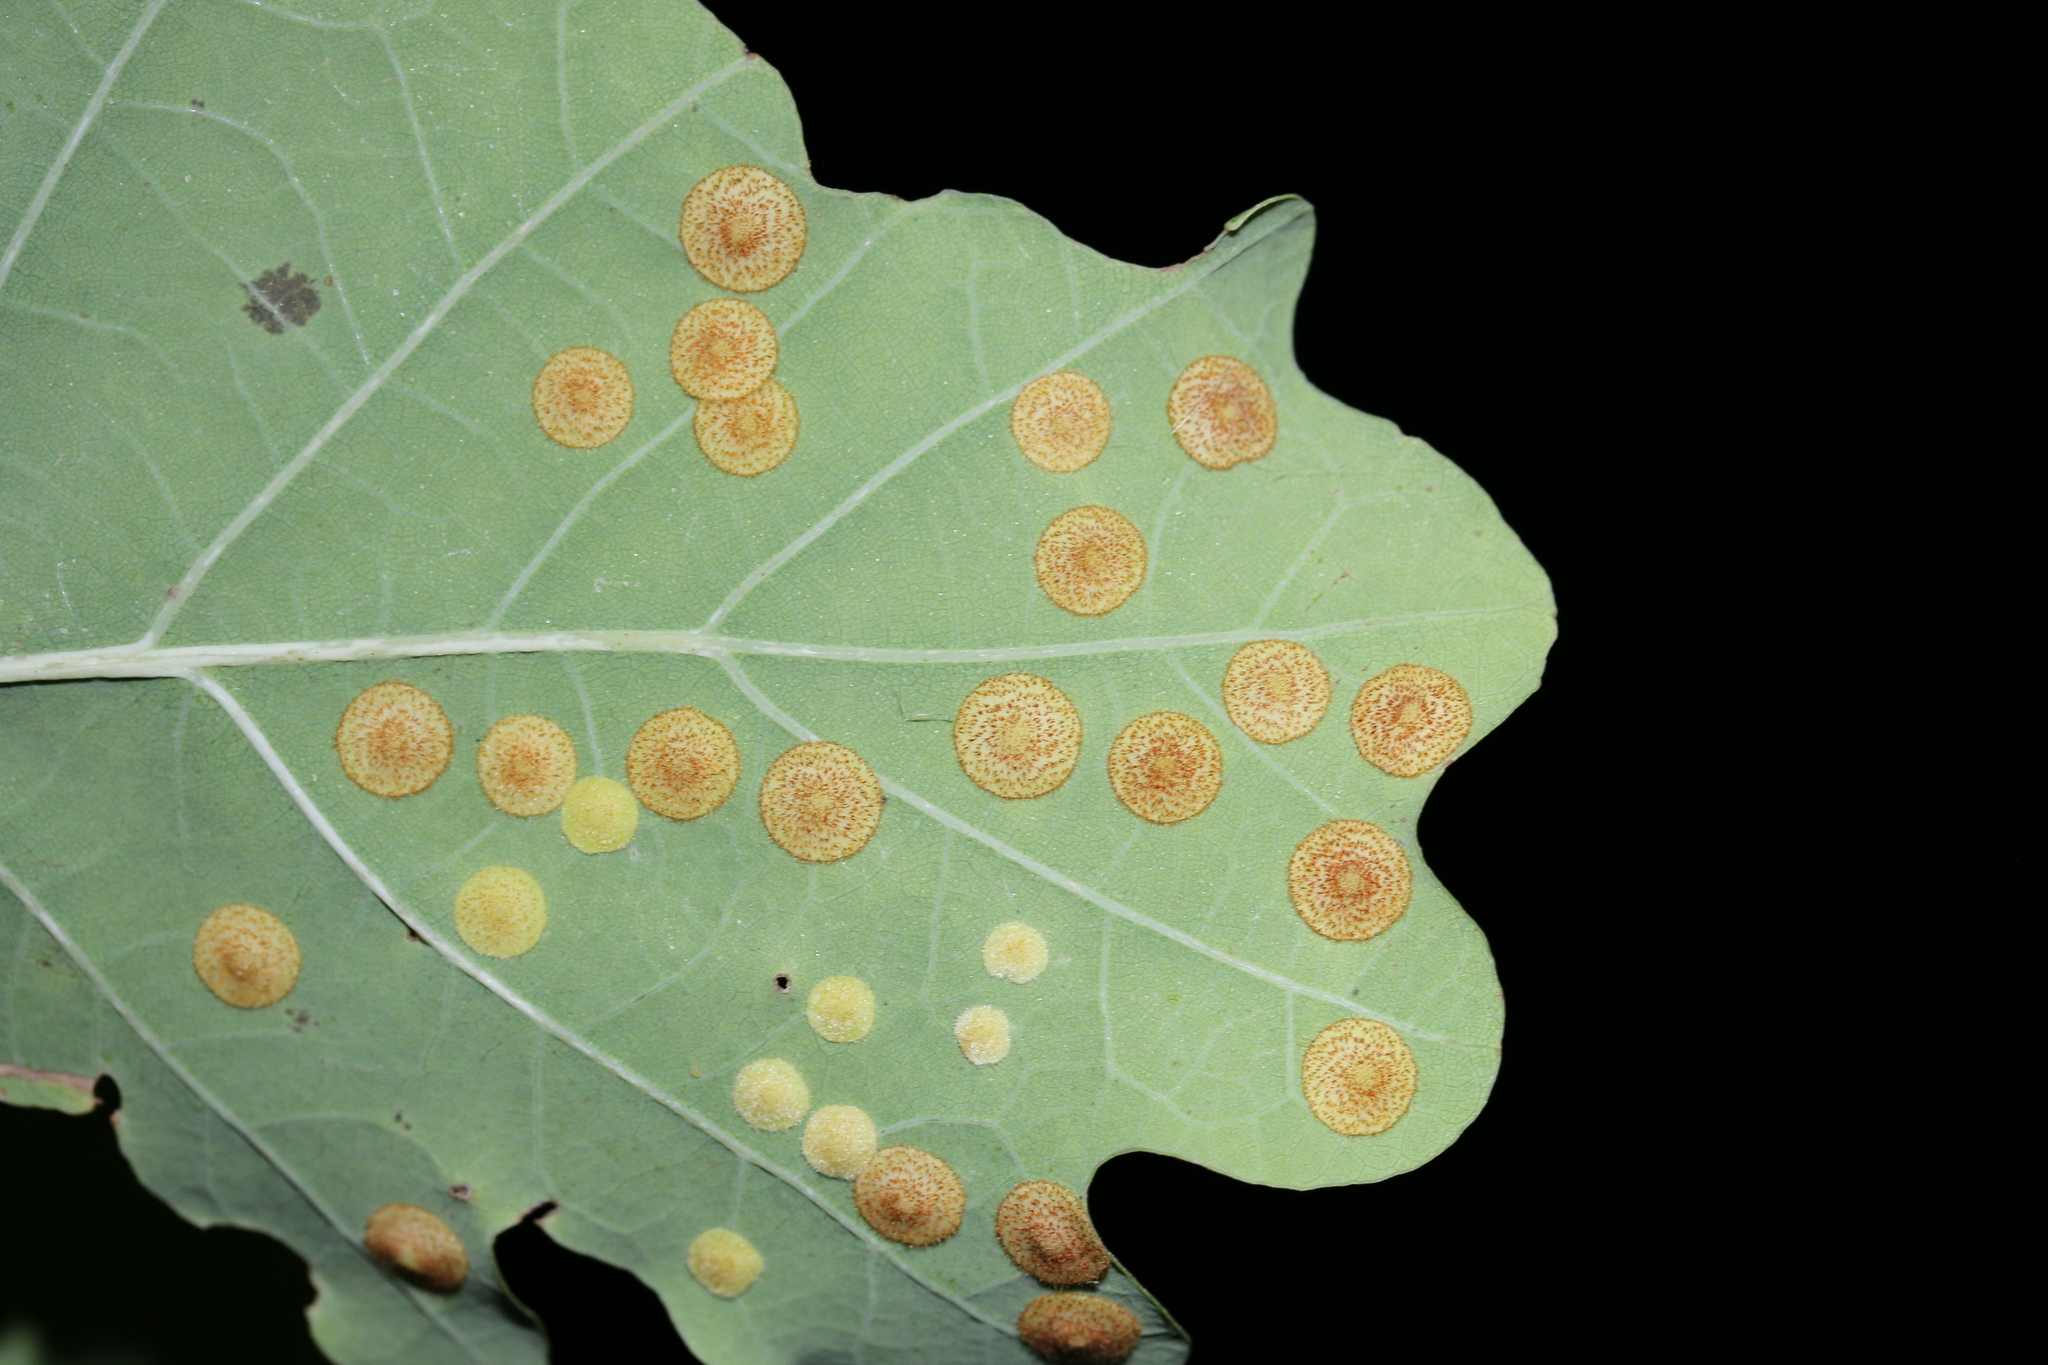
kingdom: Animalia
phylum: Arthropoda
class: Insecta
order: Hymenoptera
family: Cynipidae
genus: Neuroterus
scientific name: Neuroterus quercusbaccarum
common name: Common spangle gall
